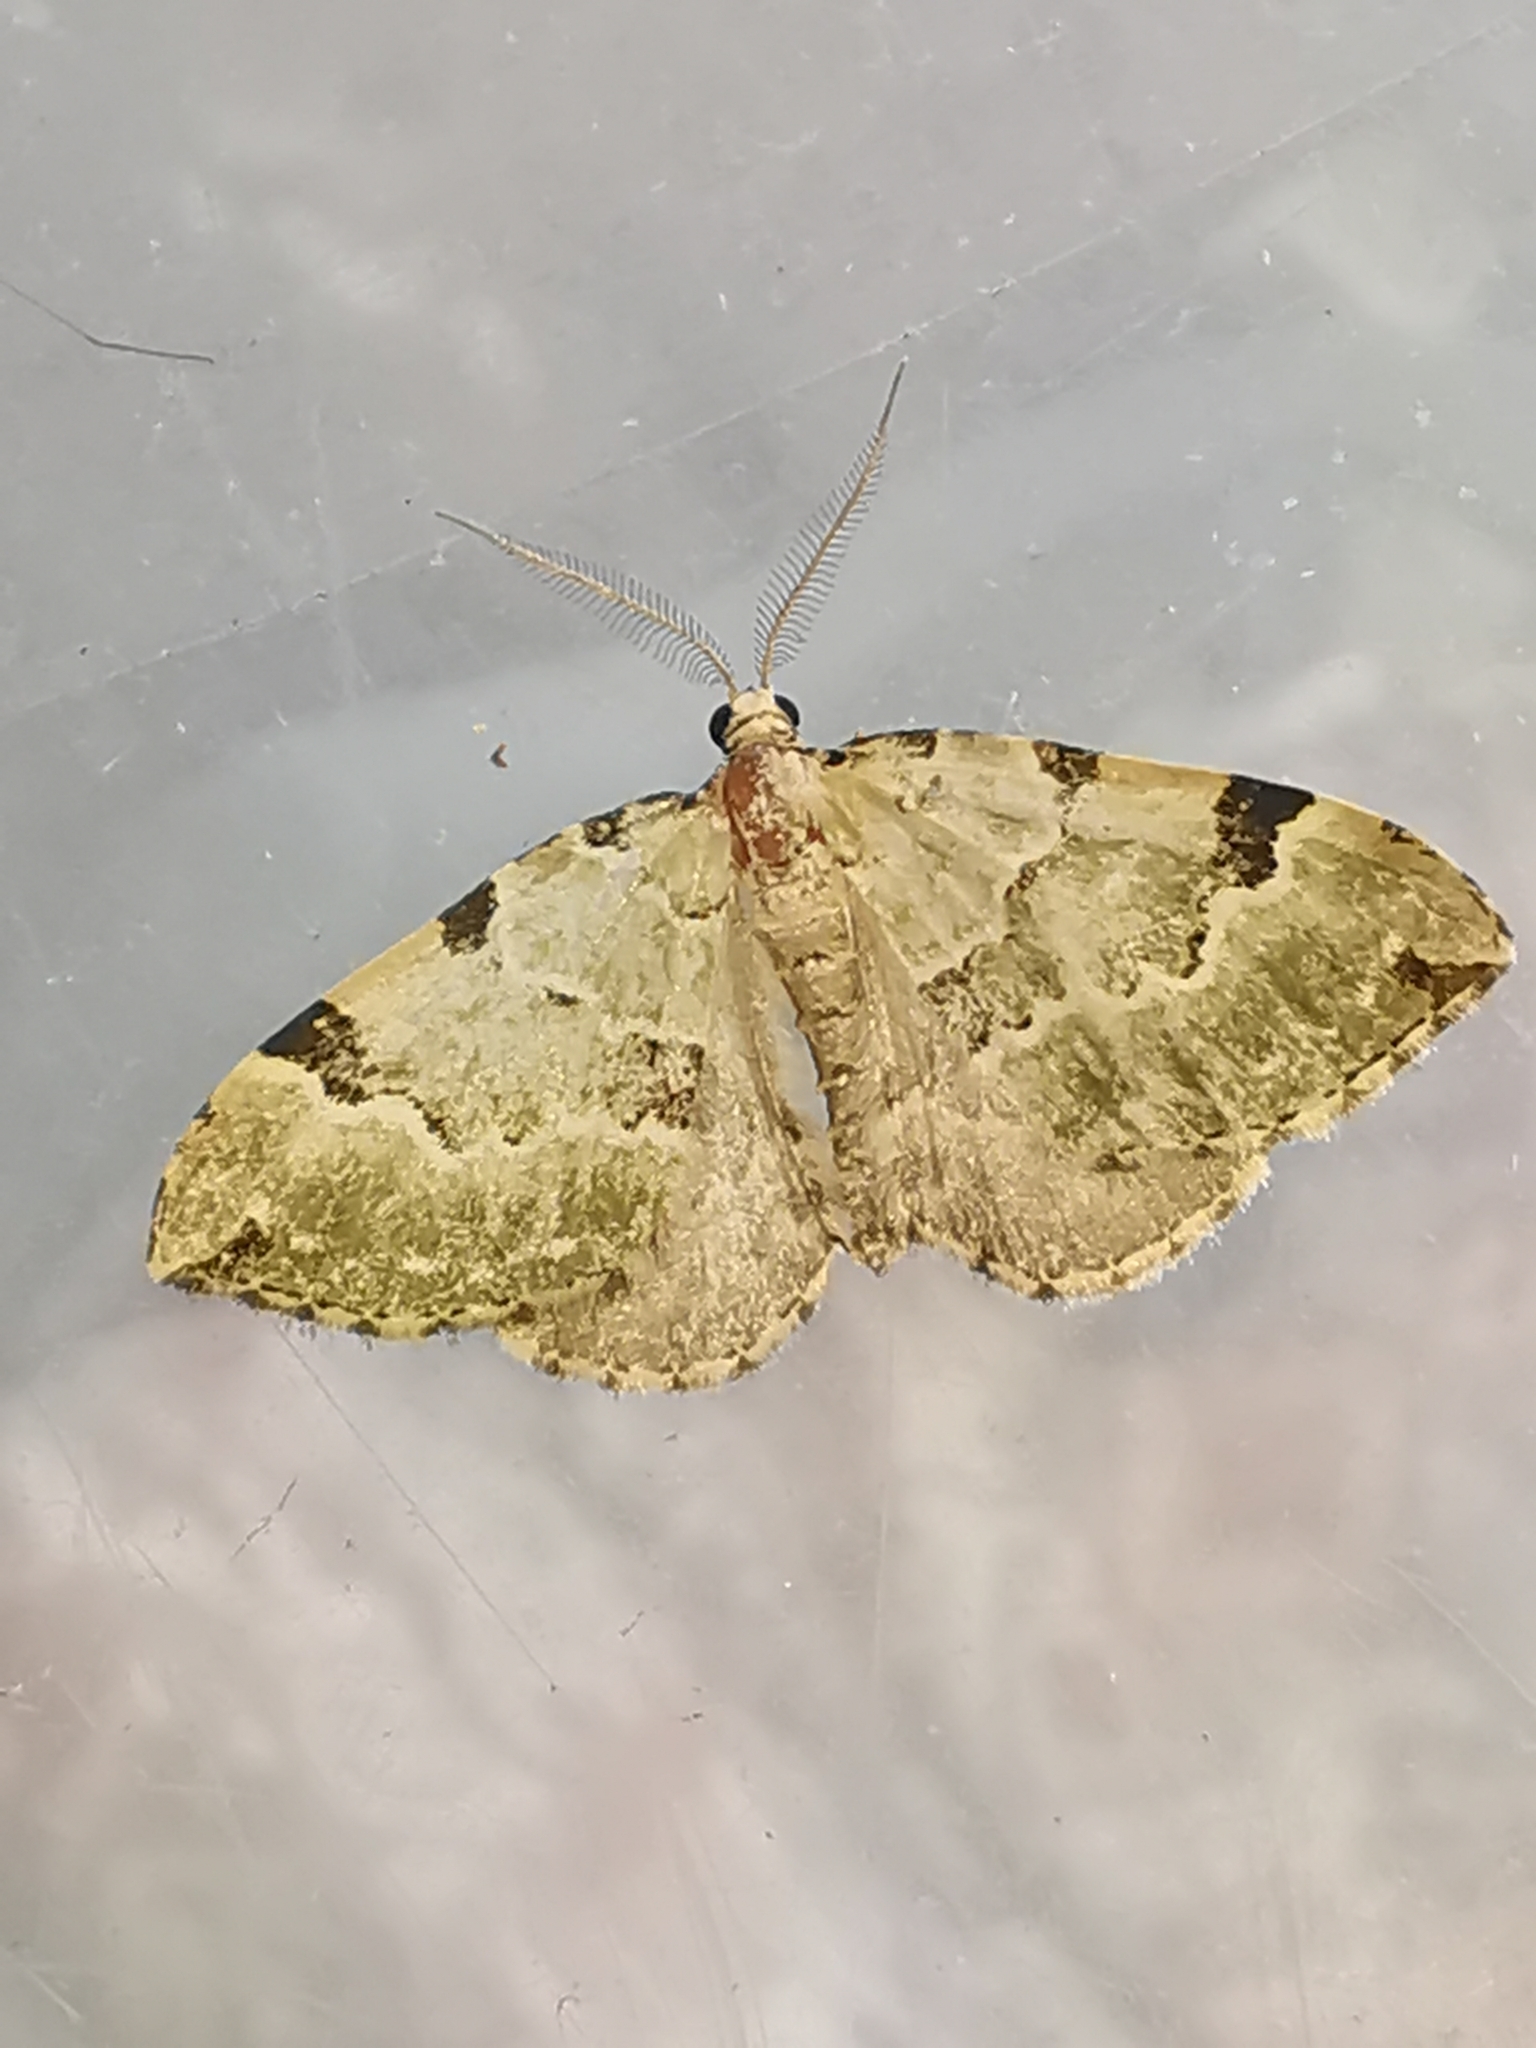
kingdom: Animalia
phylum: Arthropoda
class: Insecta
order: Lepidoptera
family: Geometridae
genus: Colostygia
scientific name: Colostygia pectinataria
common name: Green carpet
